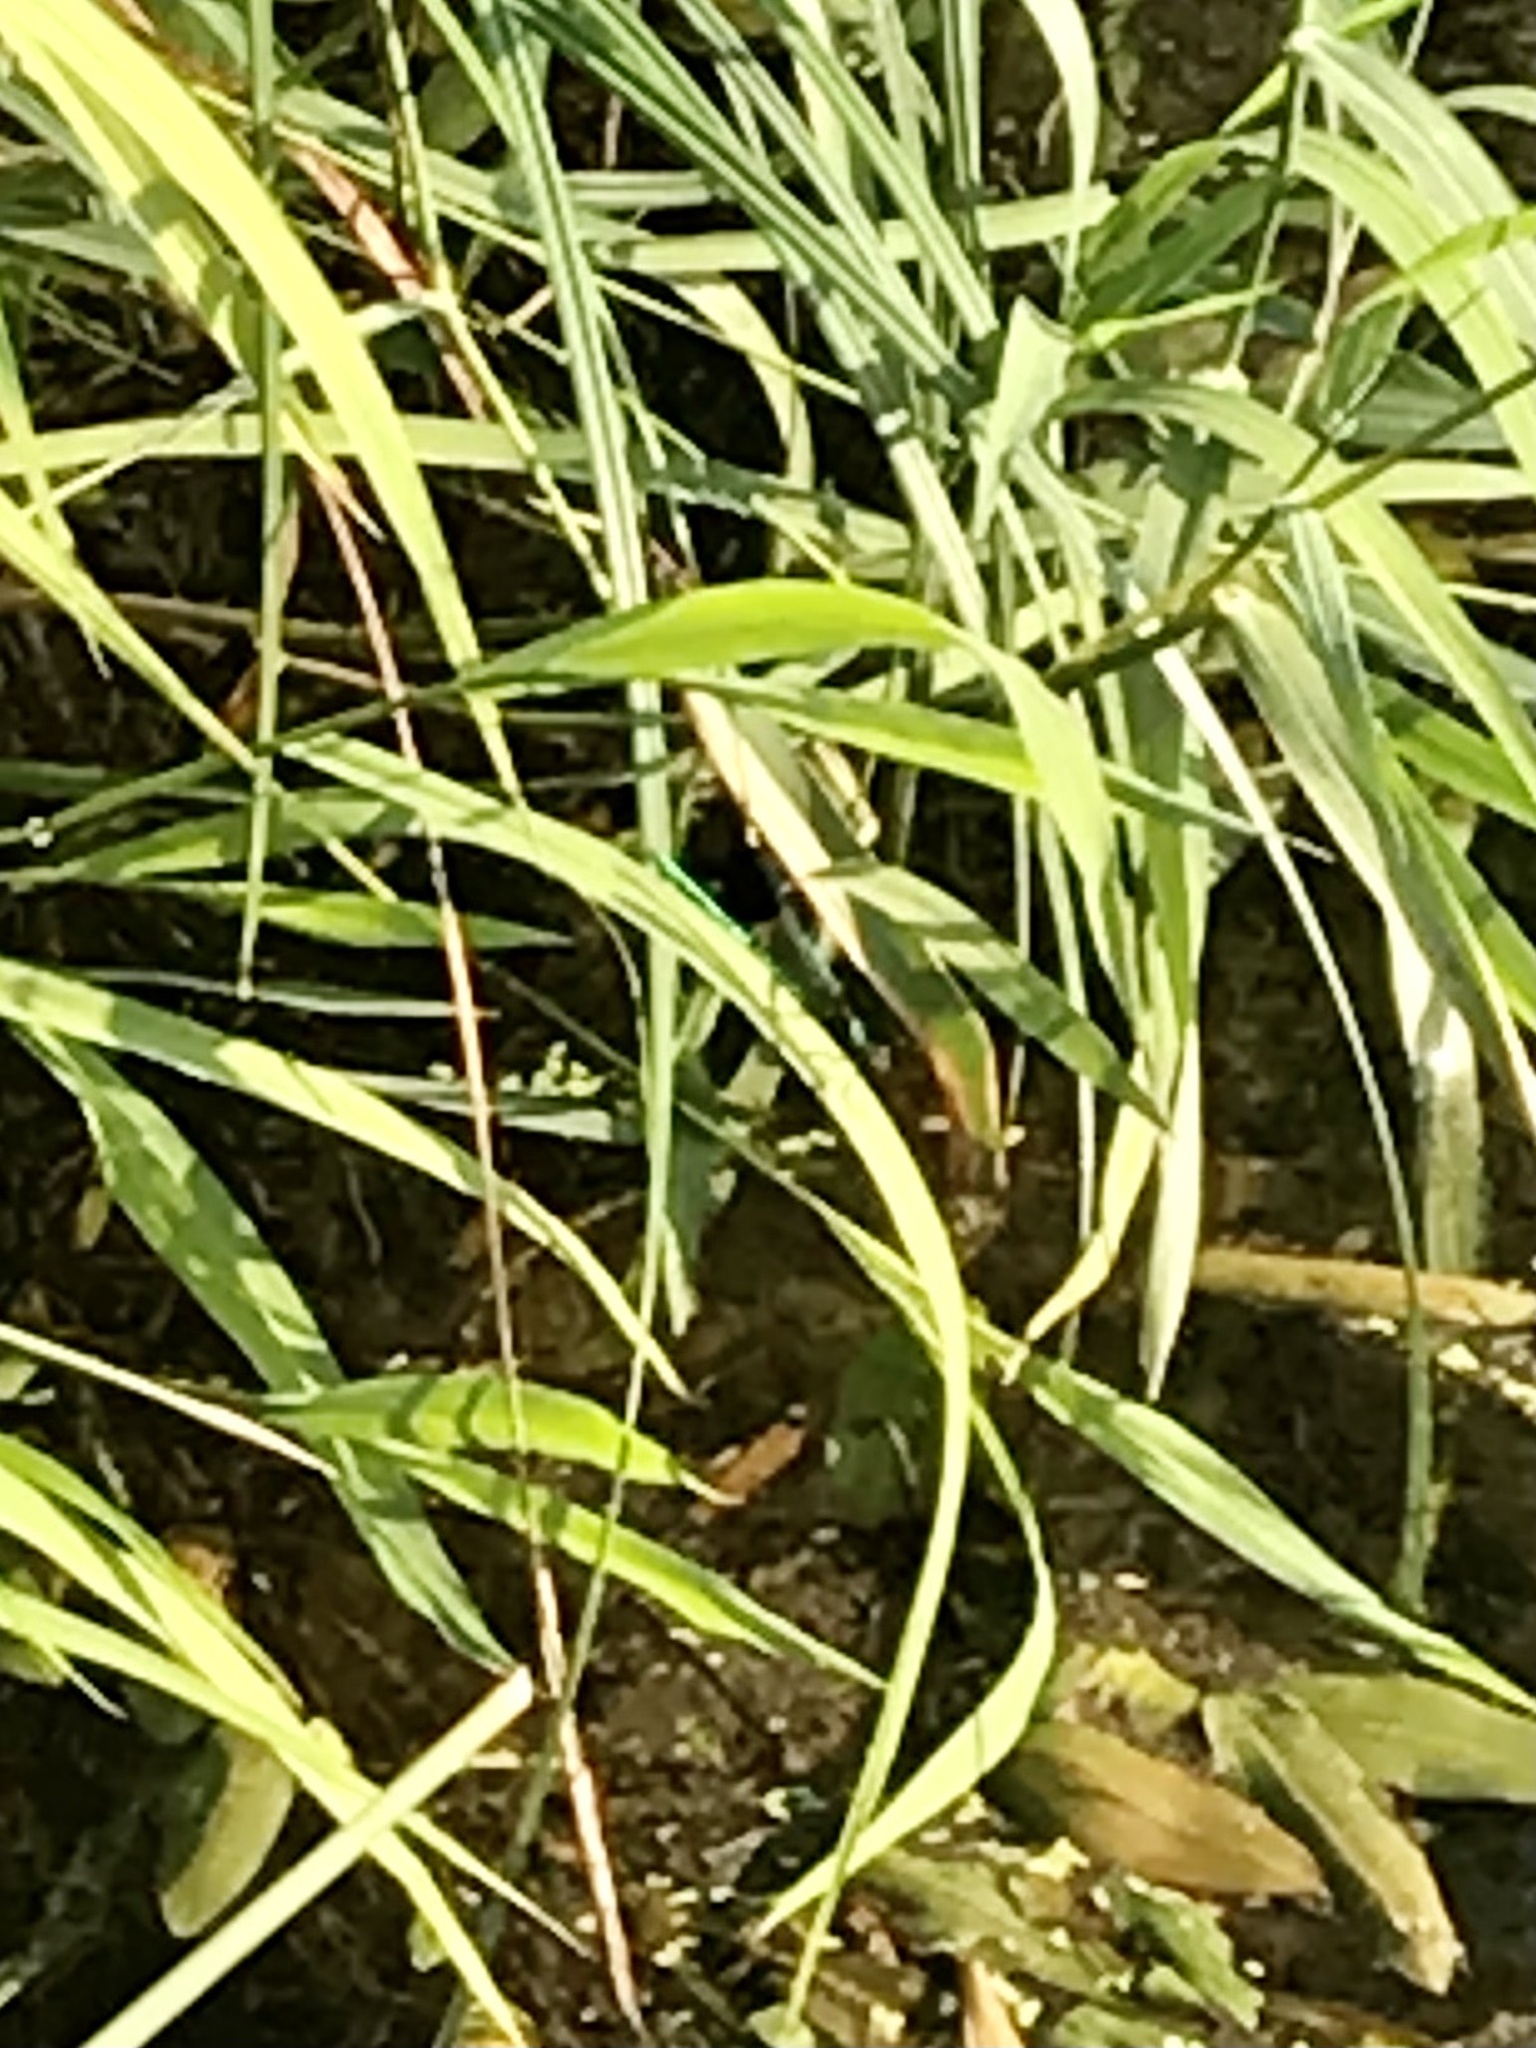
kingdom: Animalia
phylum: Arthropoda
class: Insecta
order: Odonata
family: Calopterygidae
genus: Calopteryx
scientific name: Calopteryx aequabilis
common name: River jewelwing
